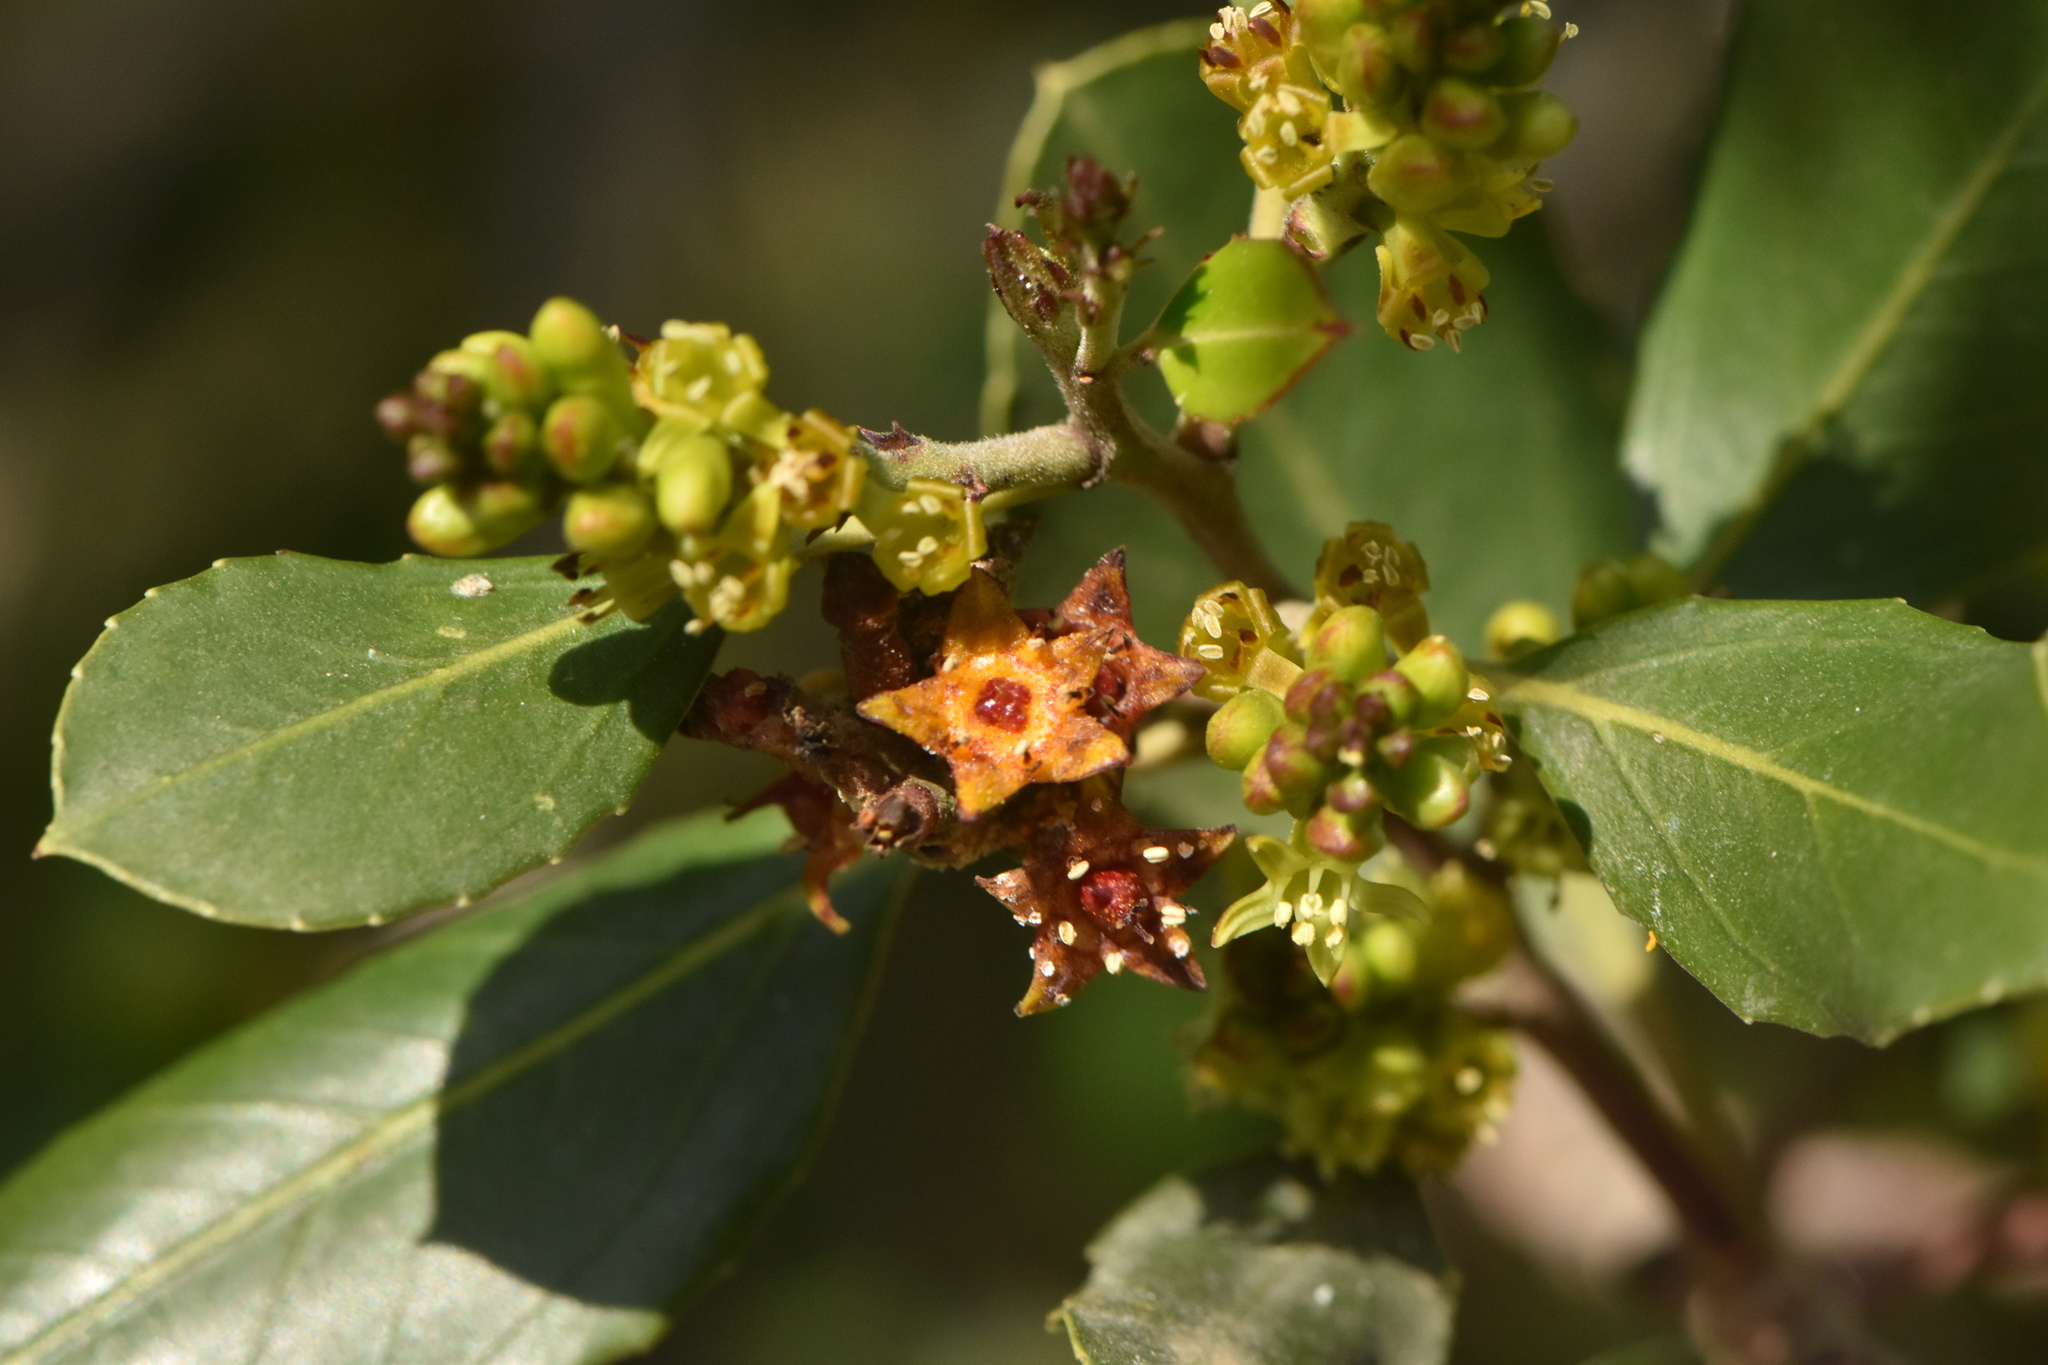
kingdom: Plantae
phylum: Tracheophyta
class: Magnoliopsida
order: Rosales
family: Rhamnaceae
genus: Rhamnus
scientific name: Rhamnus alaternus
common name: Mediterranean buckthorn
